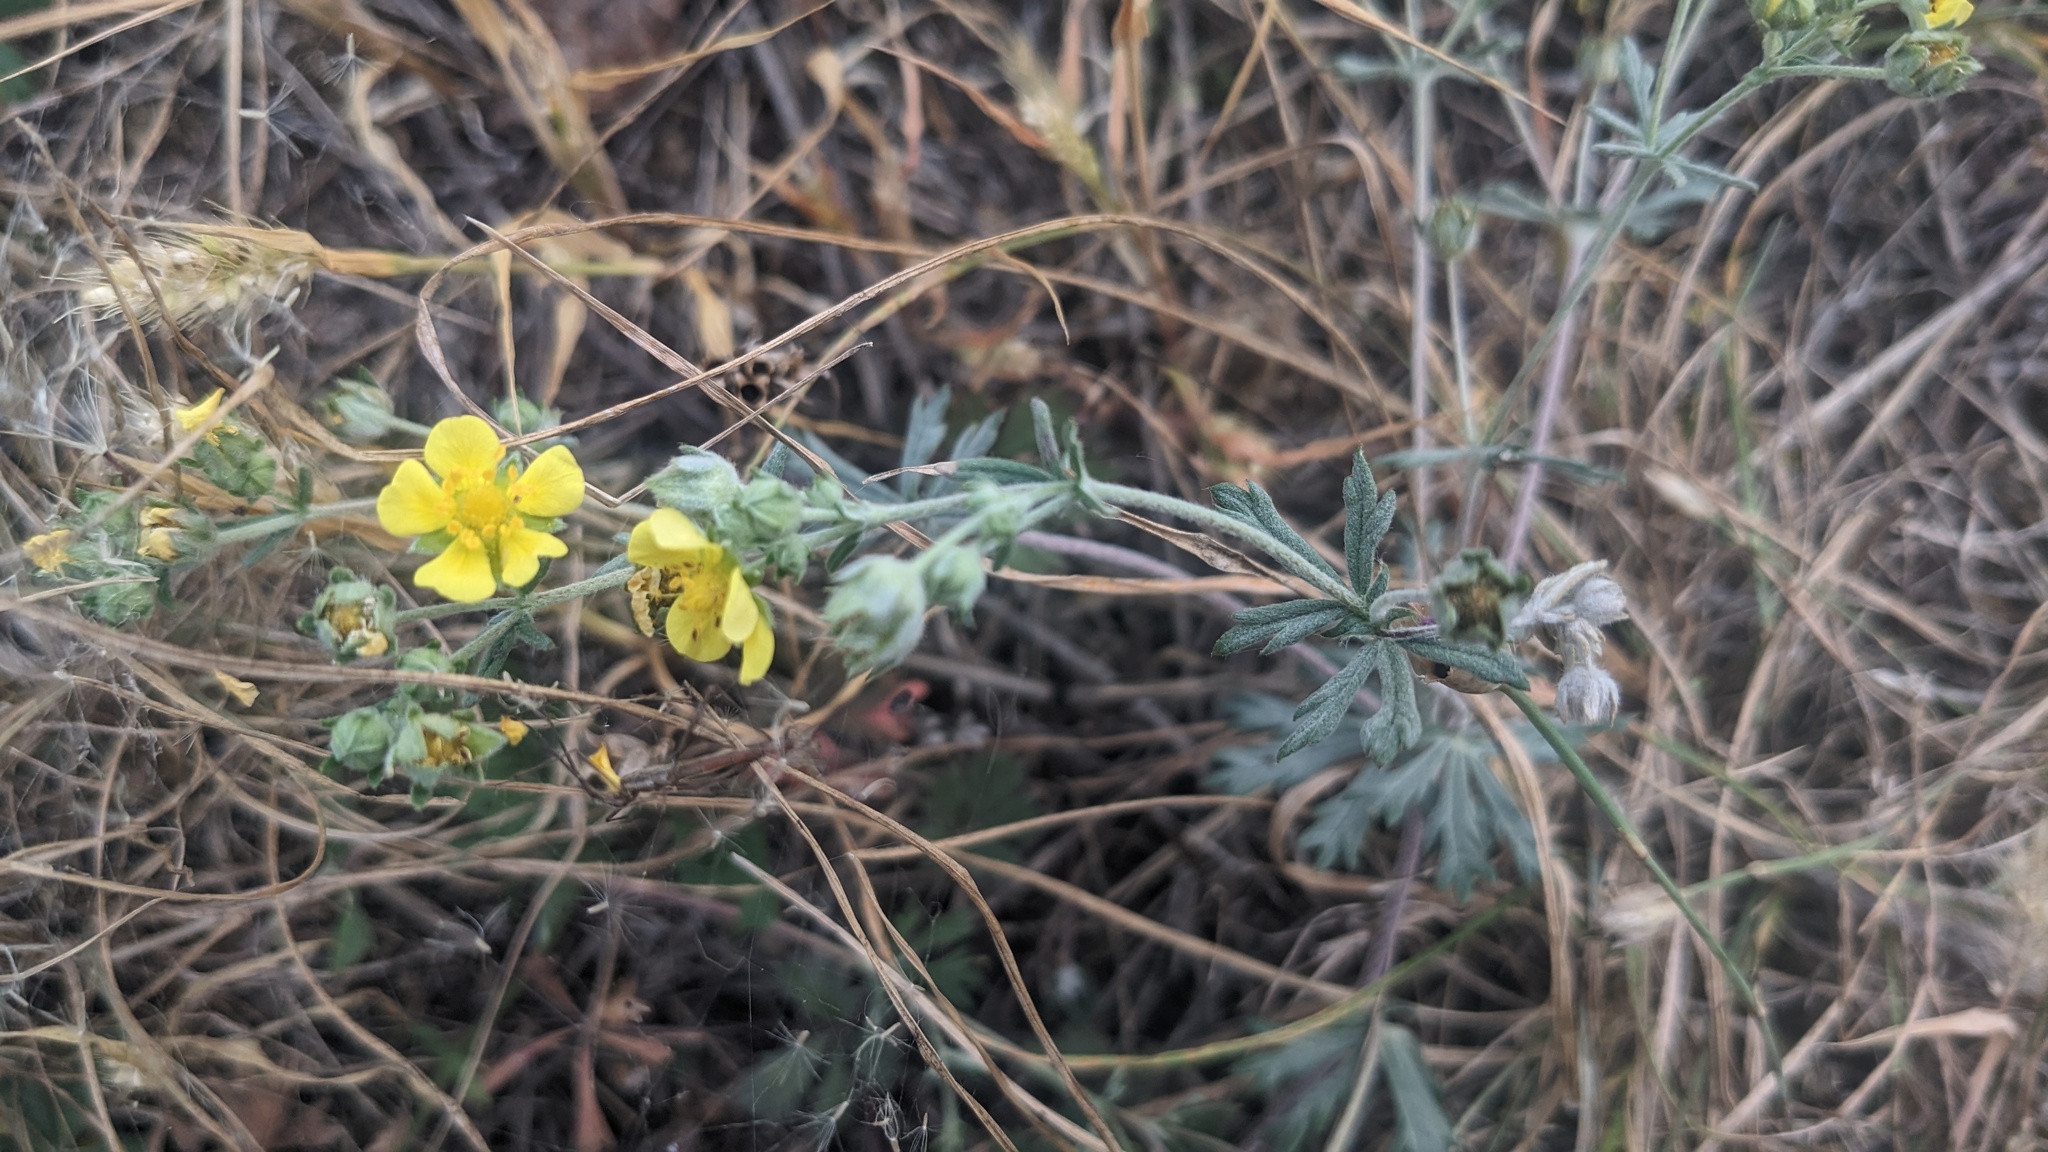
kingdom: Plantae
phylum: Tracheophyta
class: Magnoliopsida
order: Rosales
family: Rosaceae
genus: Potentilla
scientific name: Potentilla argentea
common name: Hoary cinquefoil
